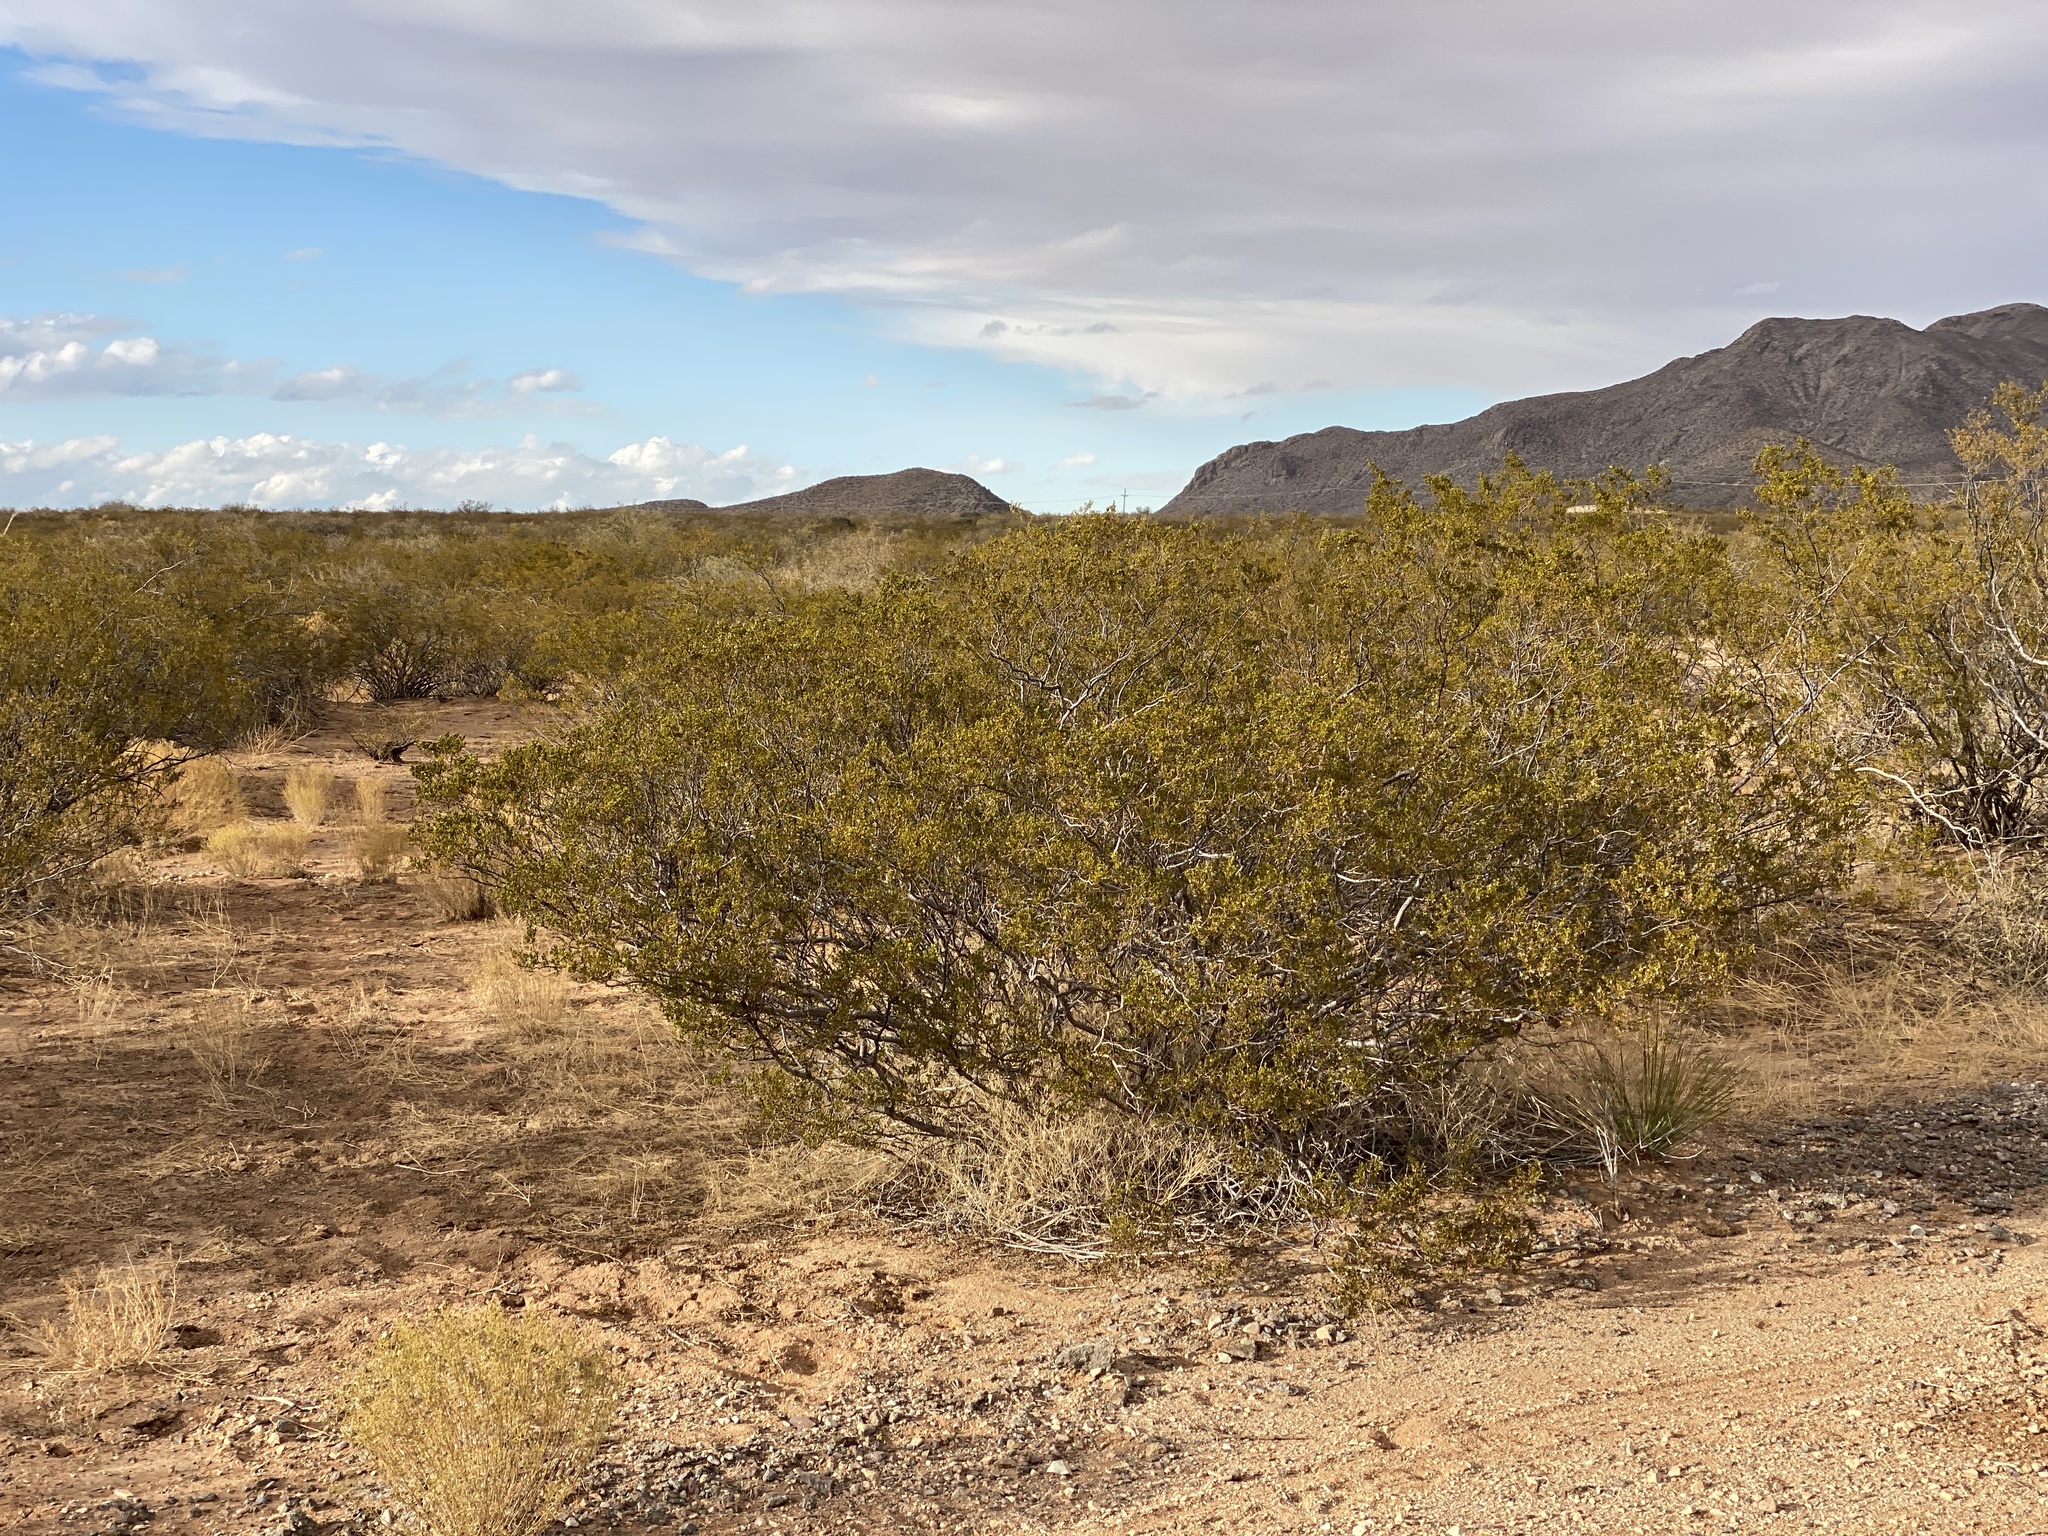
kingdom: Plantae
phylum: Tracheophyta
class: Magnoliopsida
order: Zygophyllales
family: Zygophyllaceae
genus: Larrea
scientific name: Larrea tridentata
